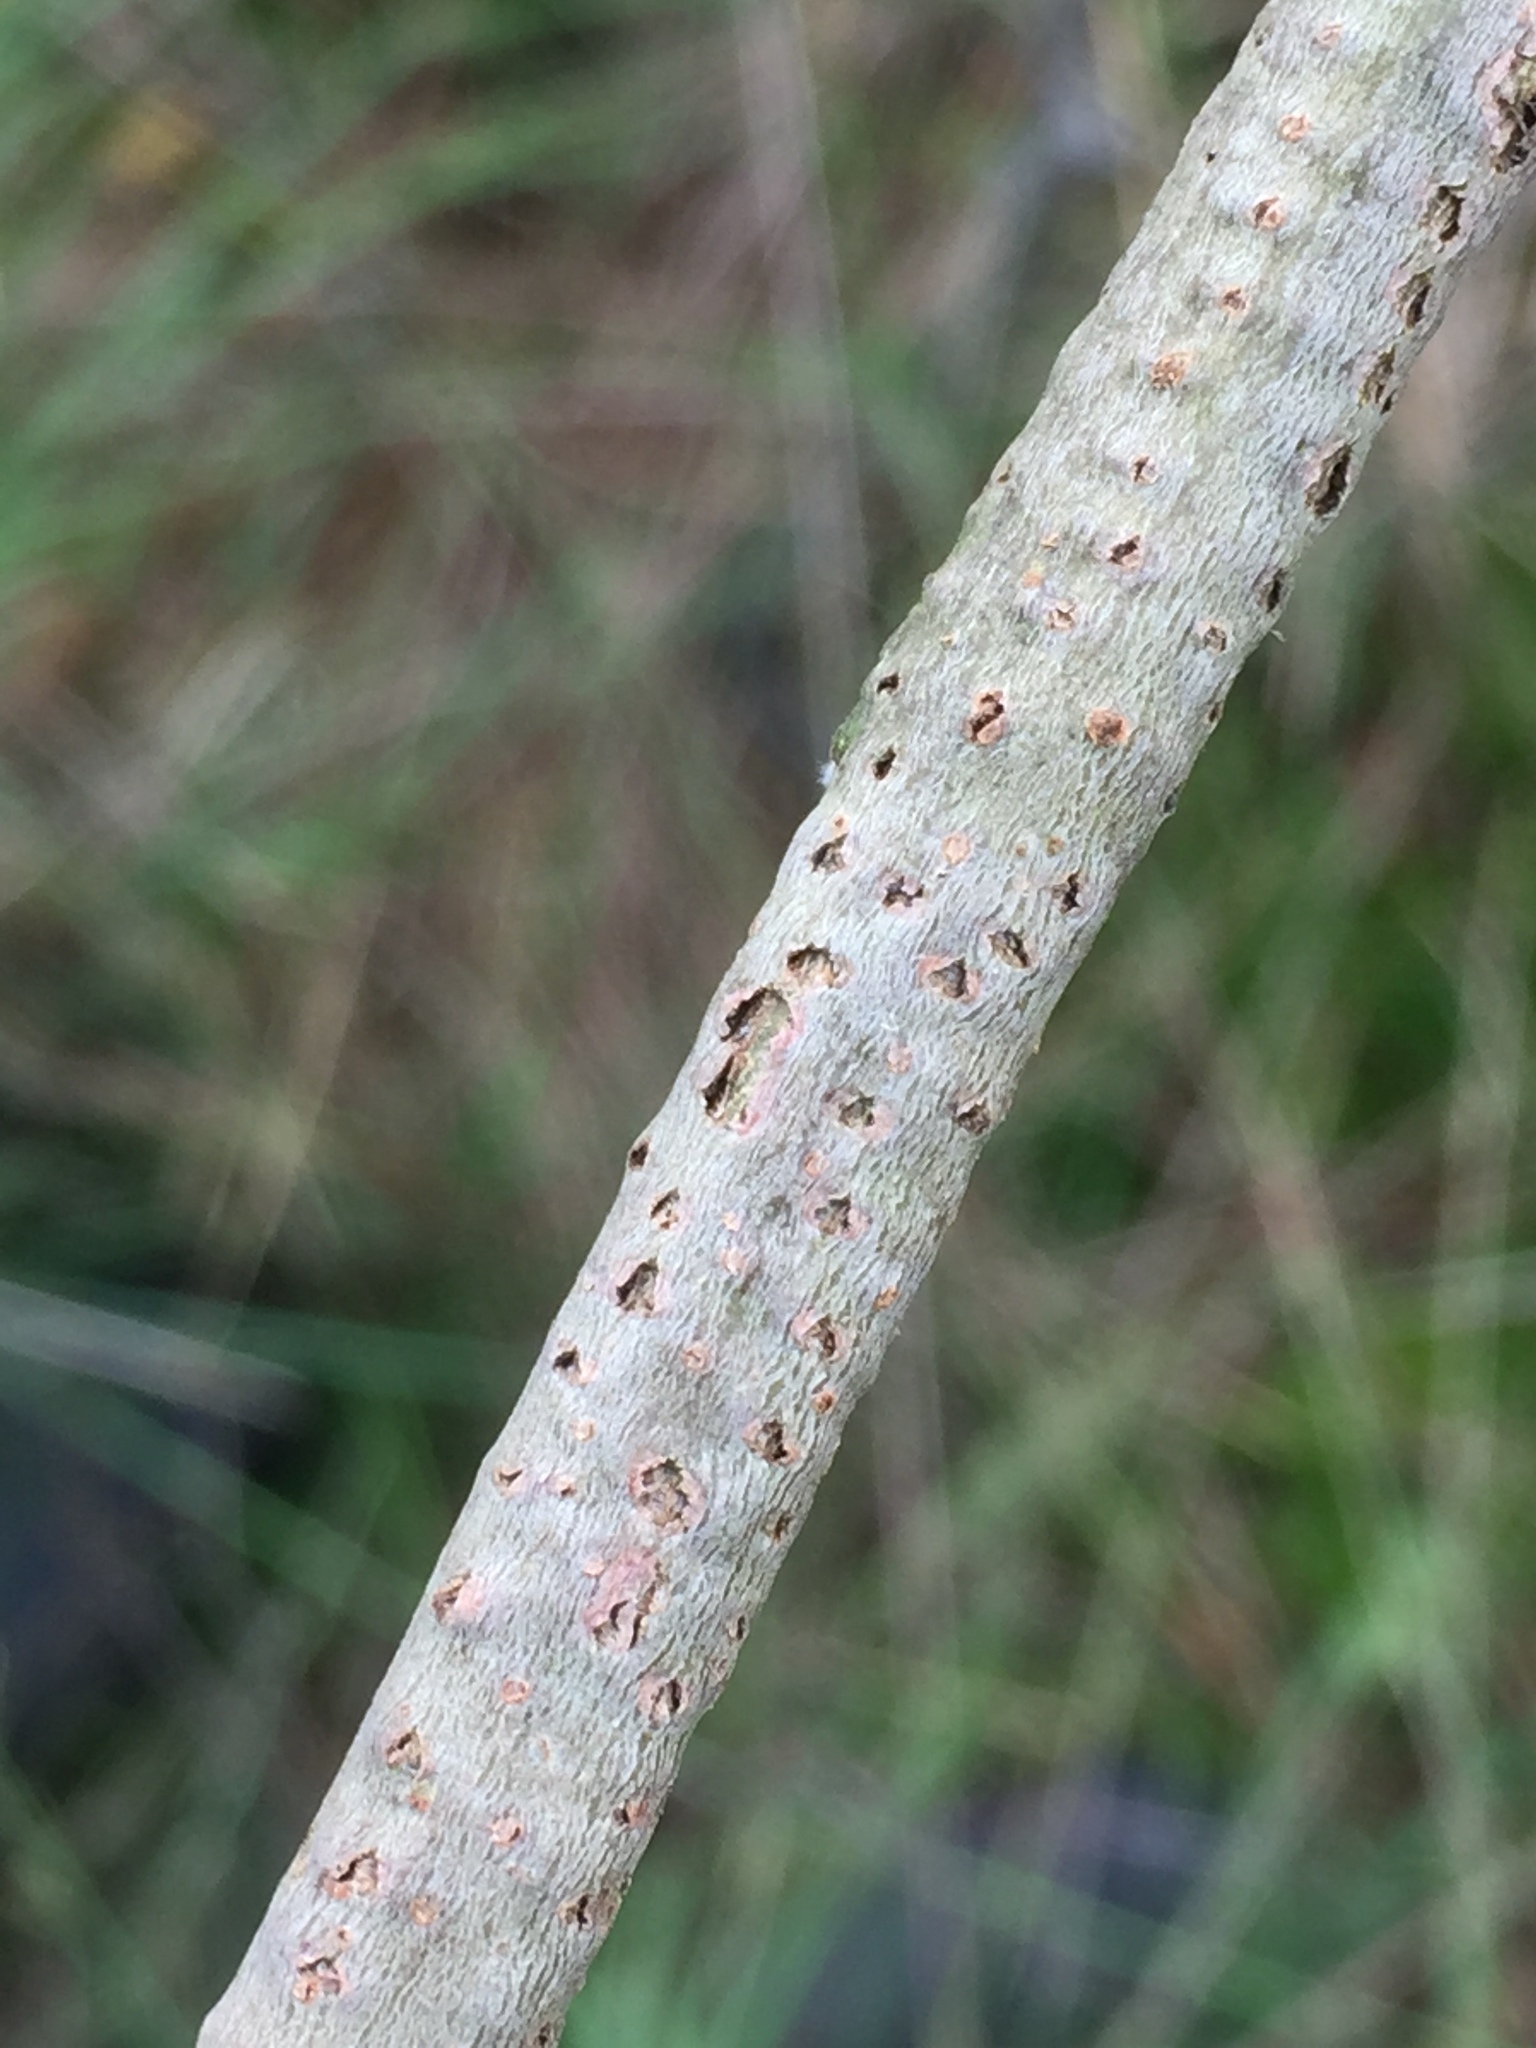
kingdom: Animalia
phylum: Arthropoda
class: Insecta
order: Odonata
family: Lestidae
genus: Chalcolestes
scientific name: Chalcolestes viridis
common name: Green emerald damselfly
